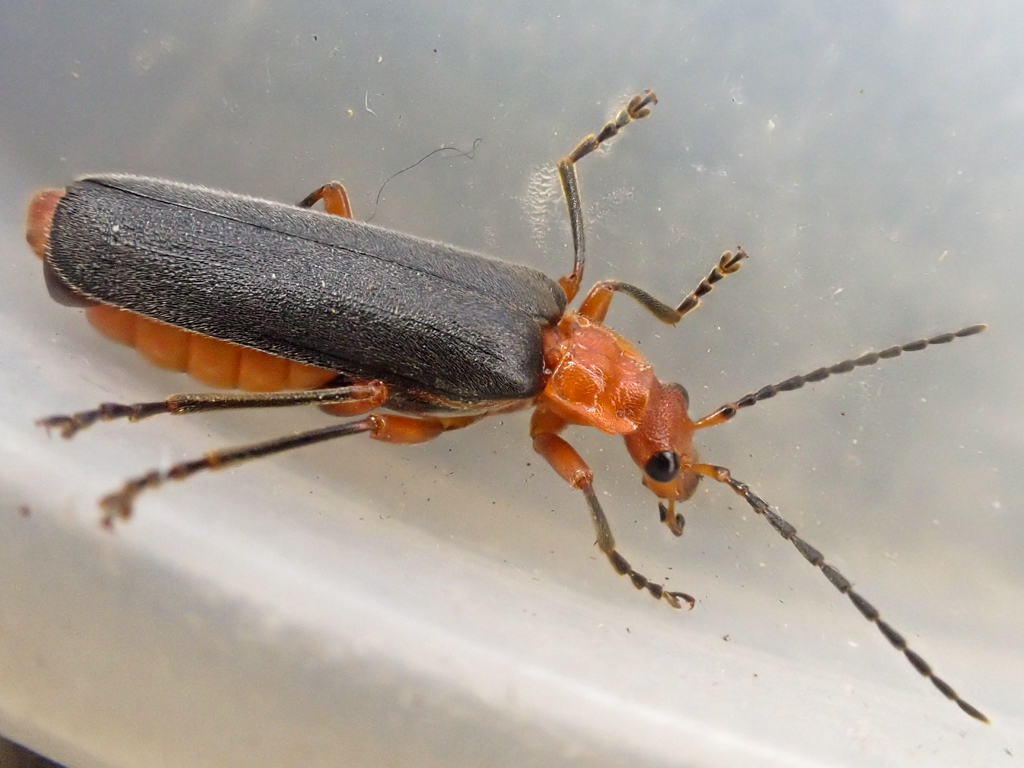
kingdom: Animalia
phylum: Arthropoda
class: Insecta
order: Coleoptera
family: Cantharidae
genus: Podabrus
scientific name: Podabrus pruinosus
